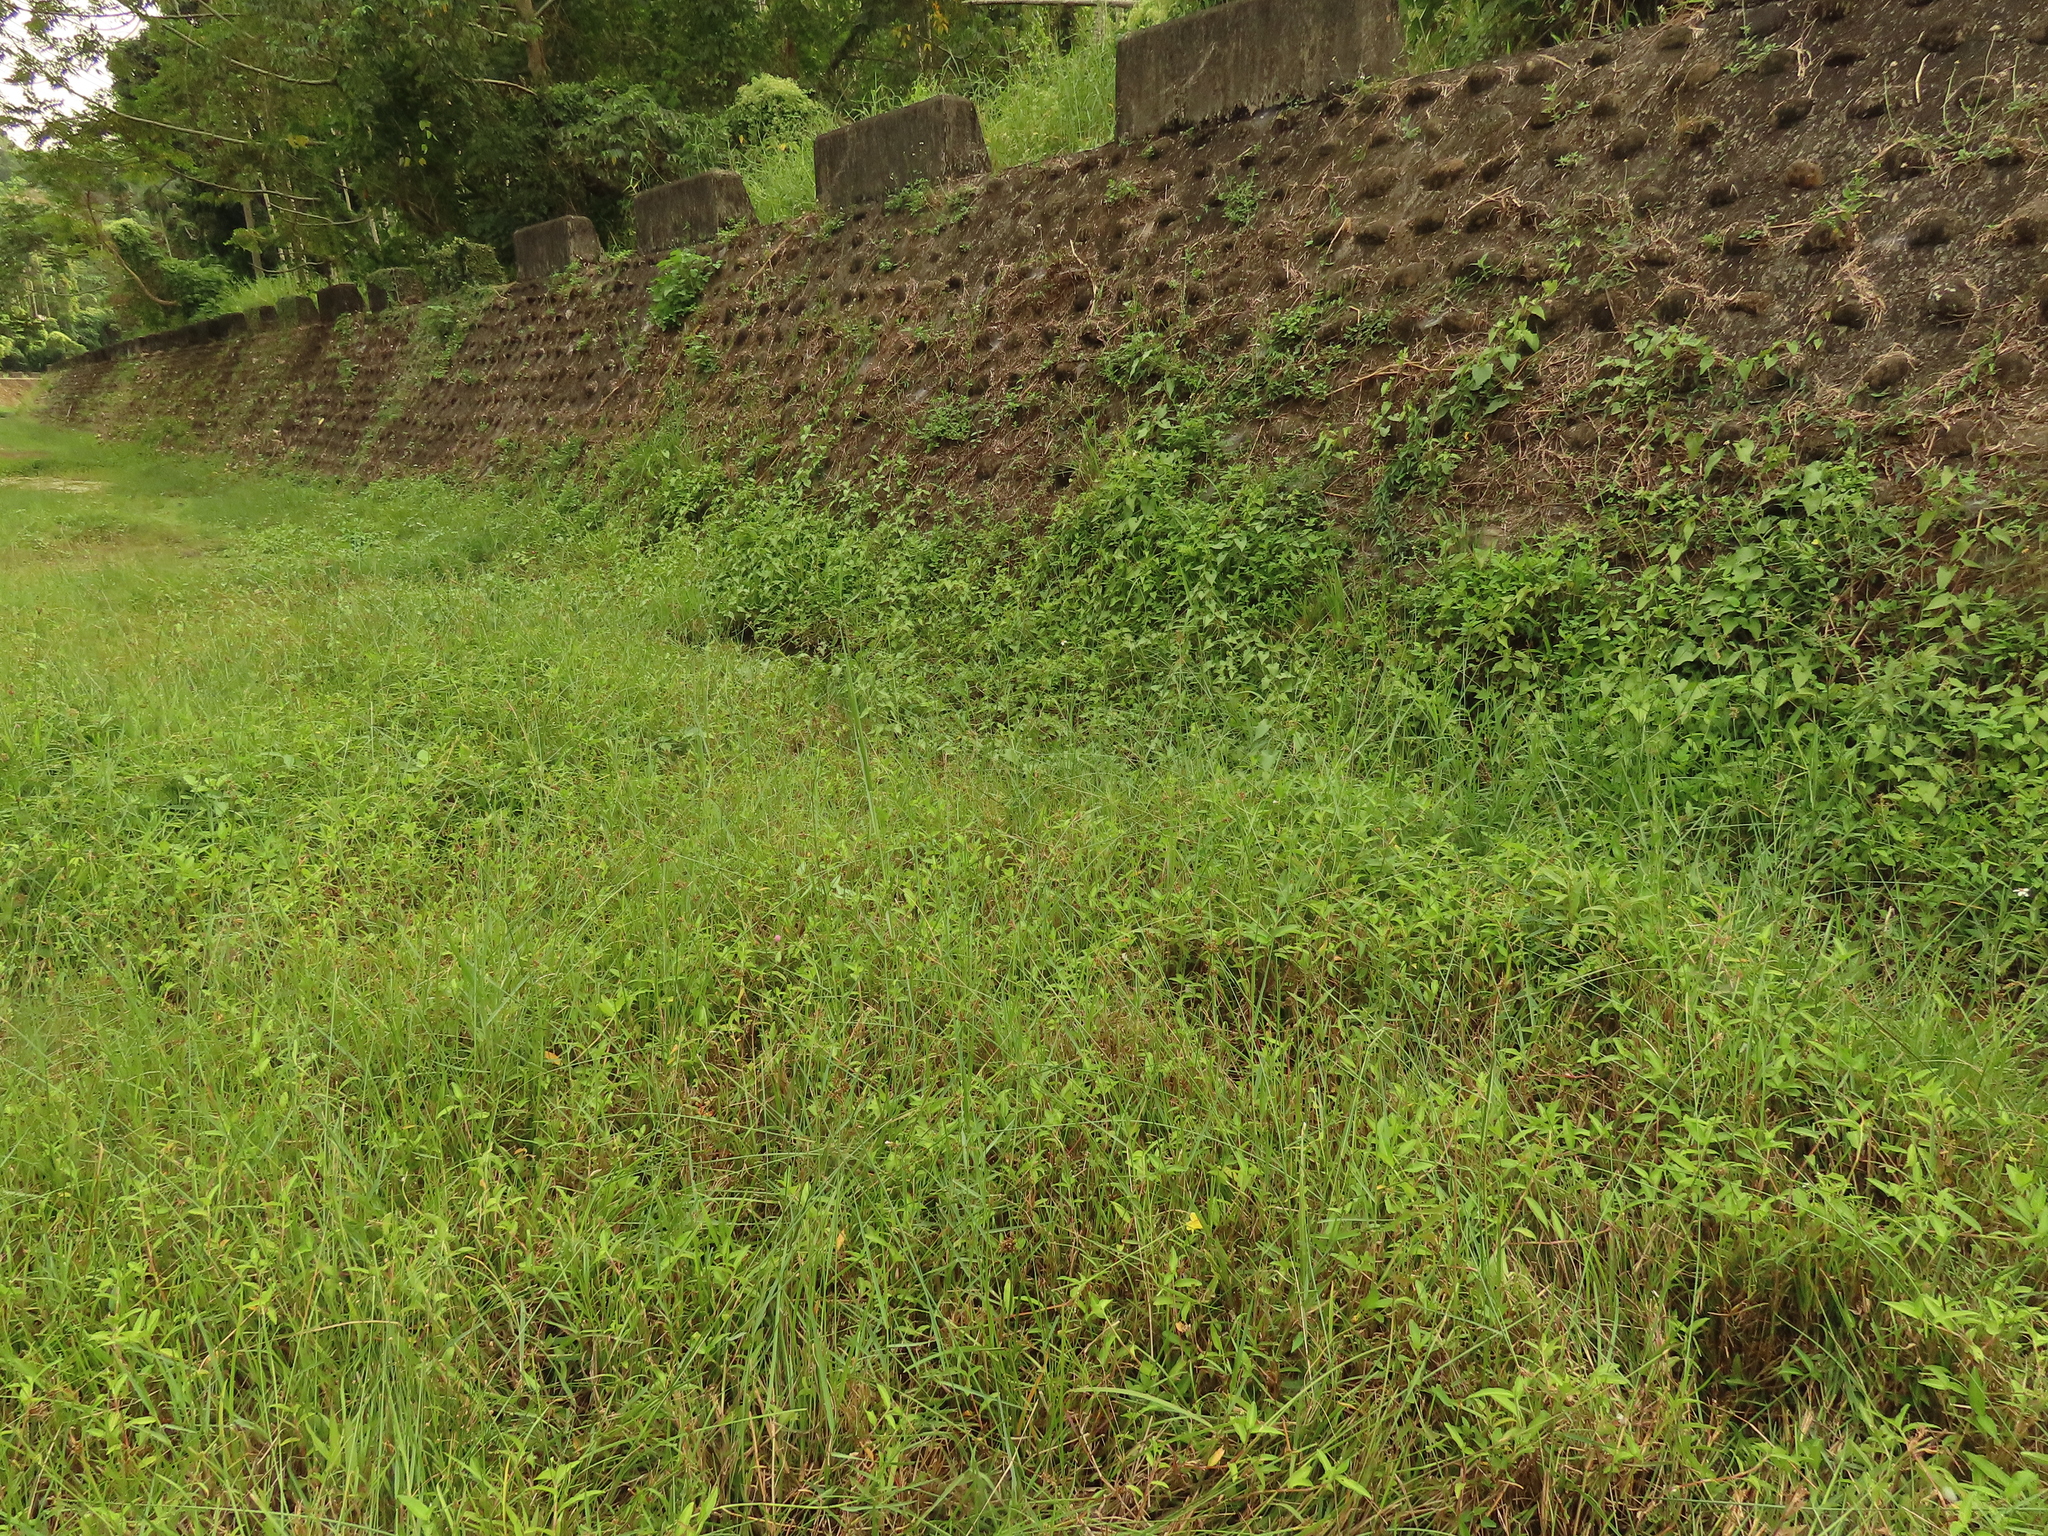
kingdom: Plantae
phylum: Tracheophyta
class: Magnoliopsida
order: Solanales
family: Convolvulaceae
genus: Merremia
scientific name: Merremia gemella
